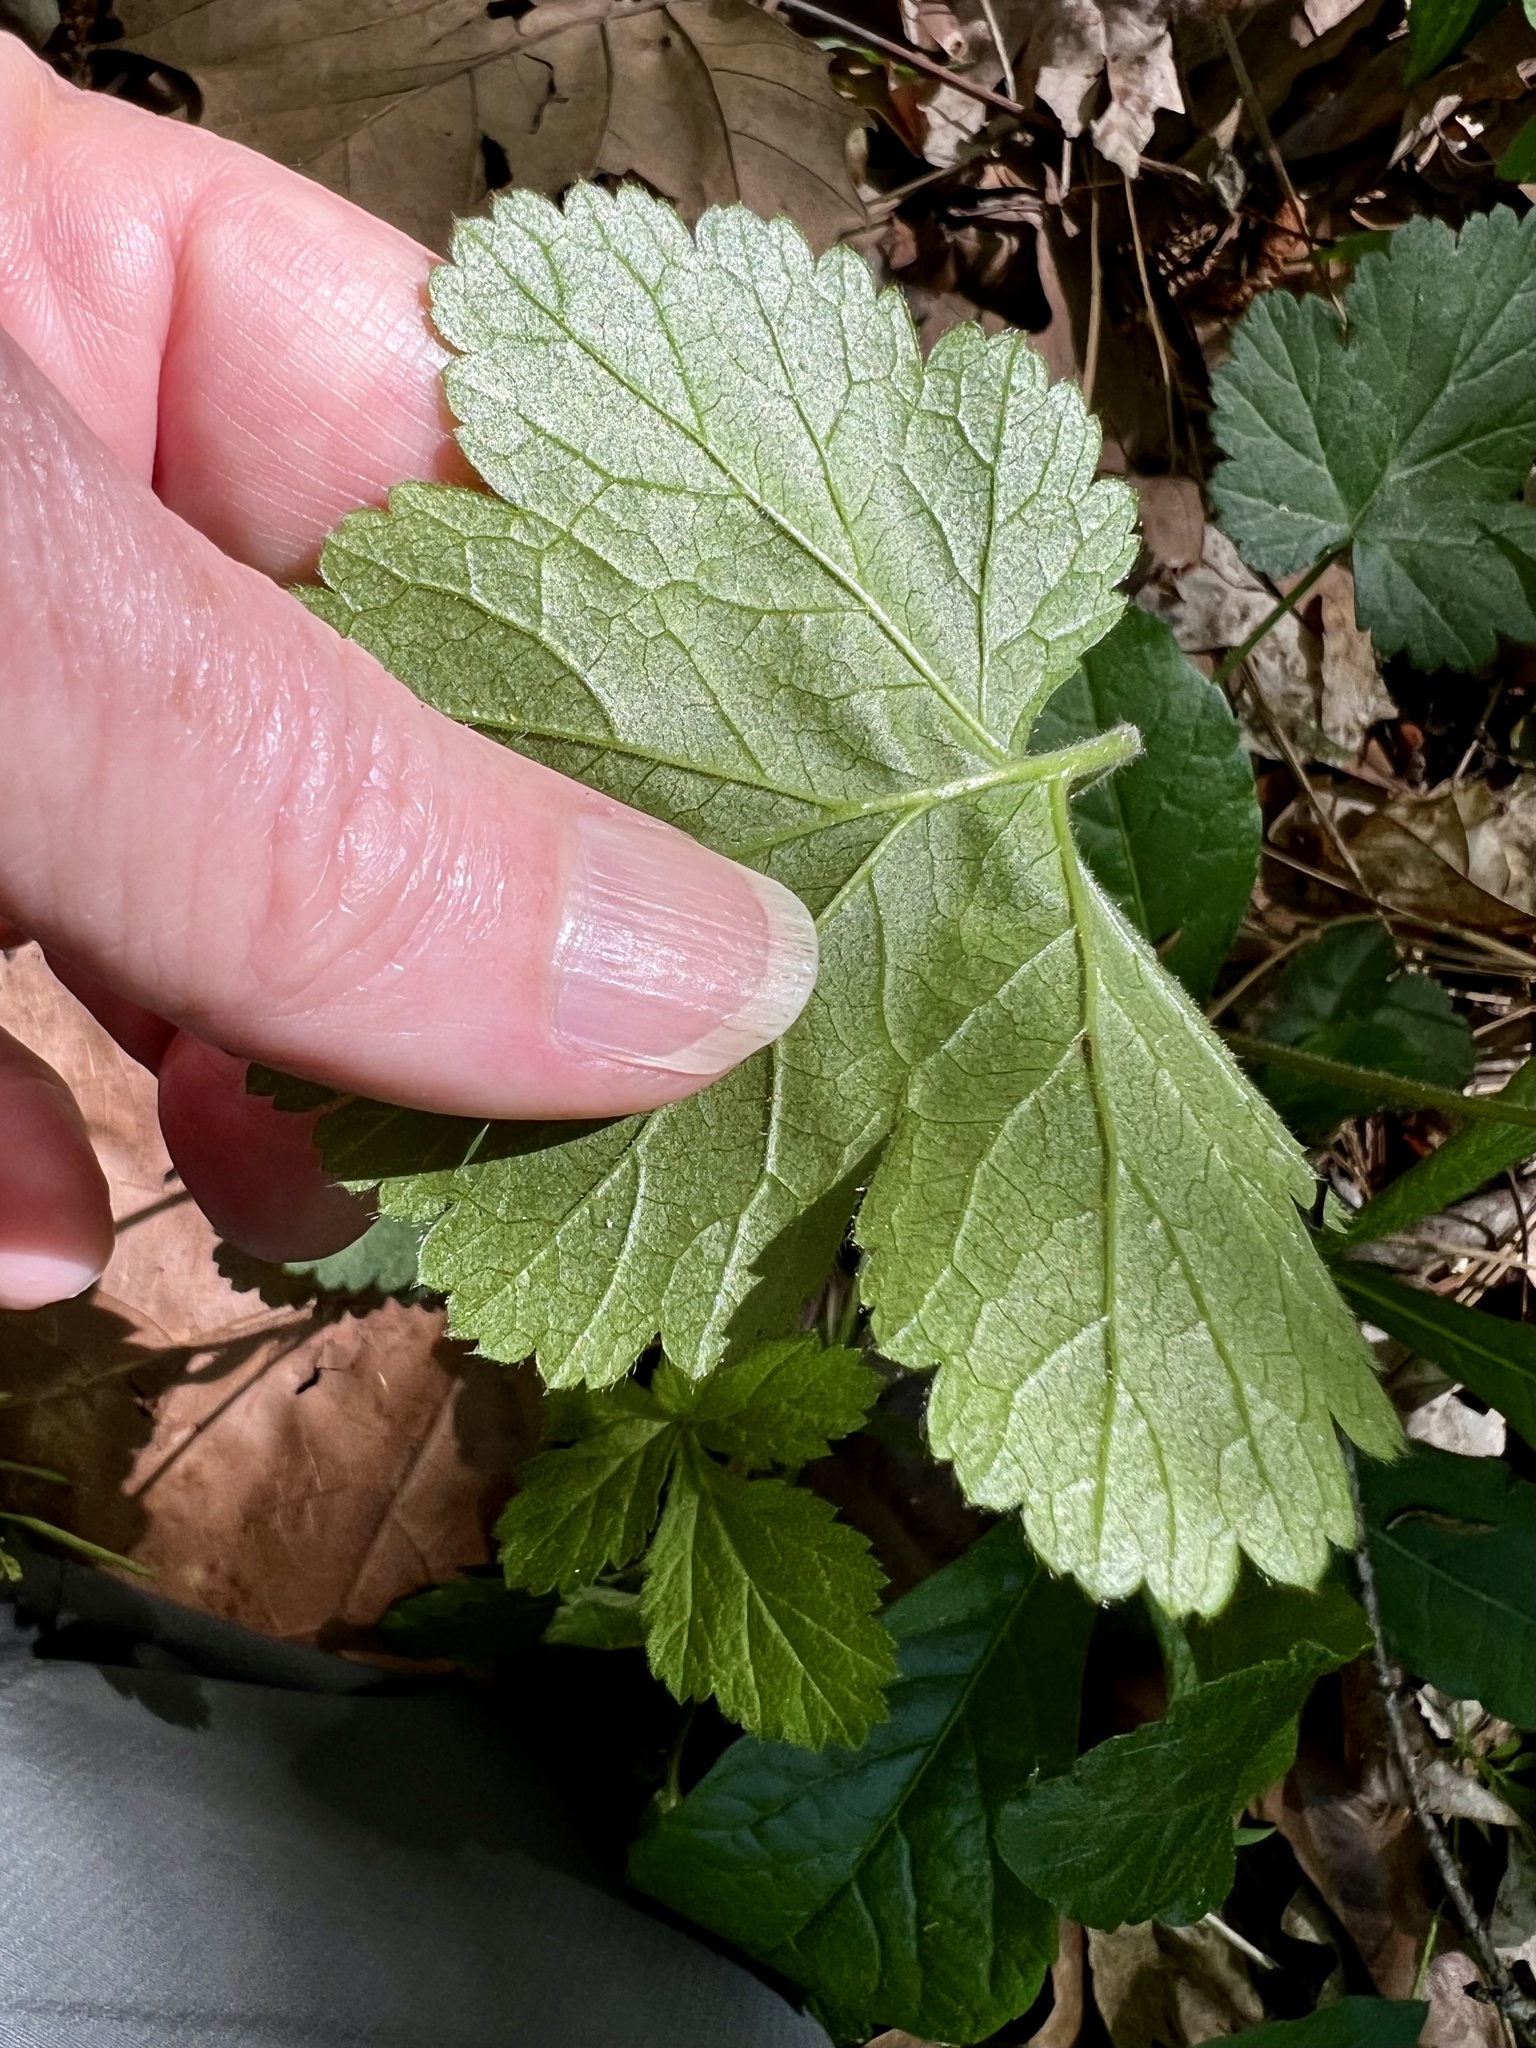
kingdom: Plantae
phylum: Tracheophyta
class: Magnoliopsida
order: Rosales
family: Rosaceae
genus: Geum
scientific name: Geum canadense
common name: White avens
